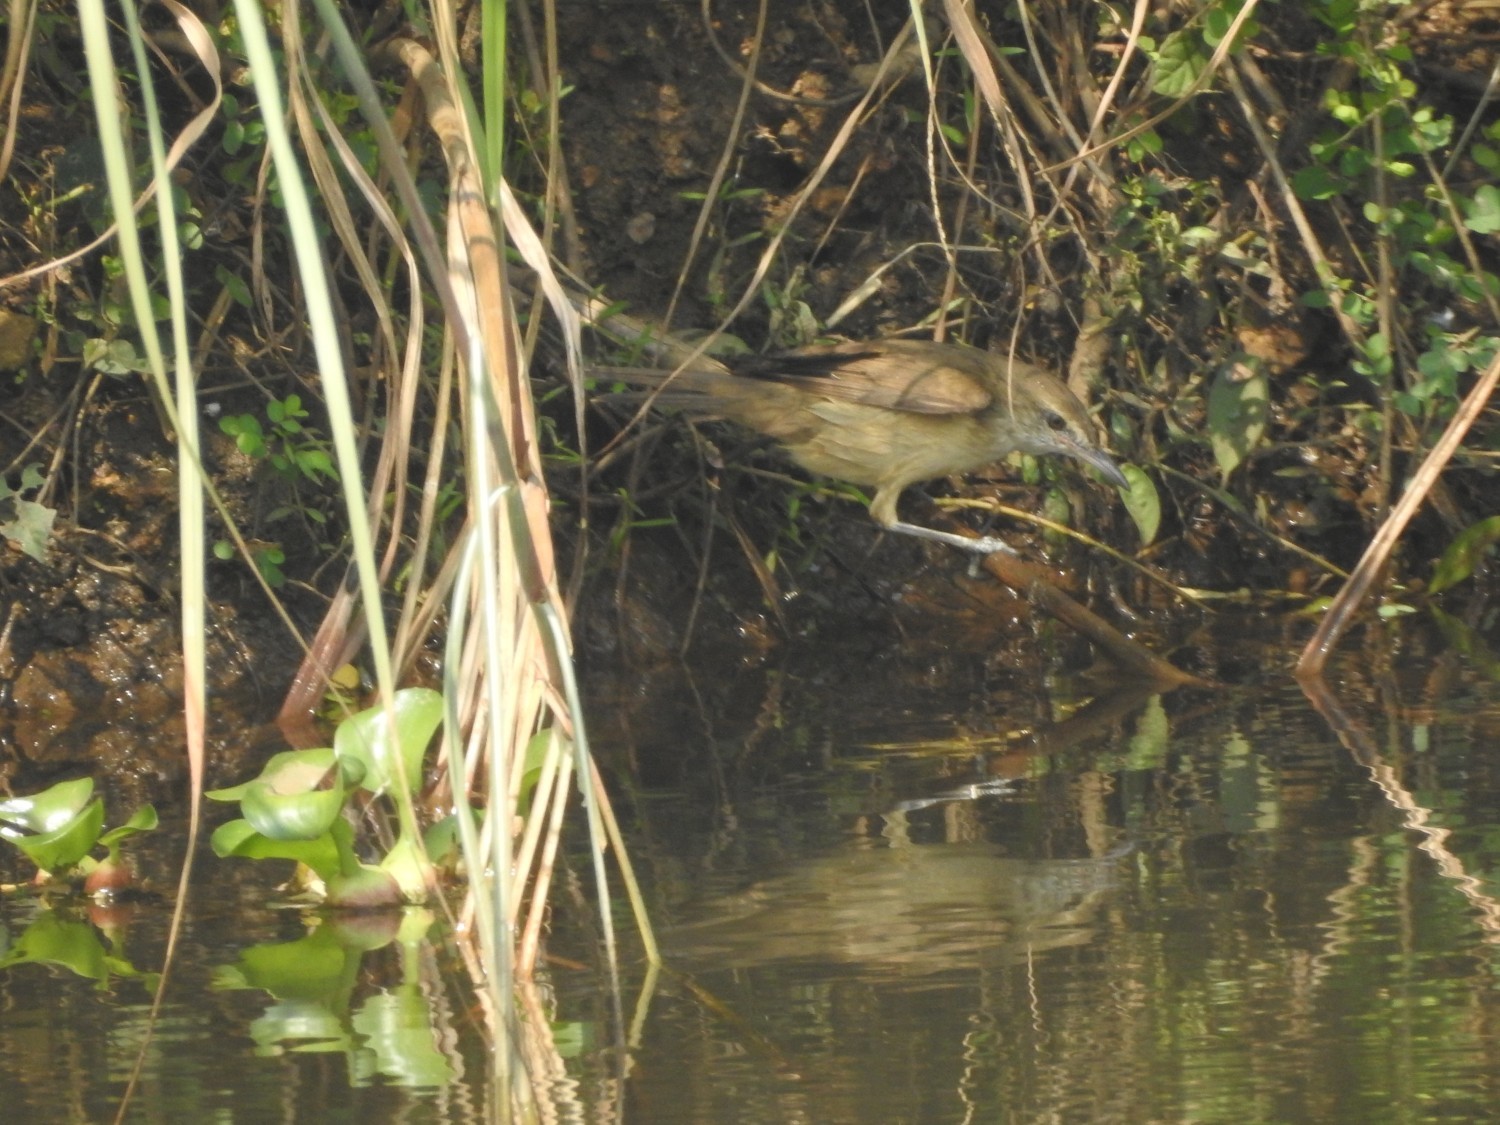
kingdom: Animalia
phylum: Chordata
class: Aves
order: Passeriformes
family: Acrocephalidae
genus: Acrocephalus
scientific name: Acrocephalus stentoreus
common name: Clamorous reed warbler
